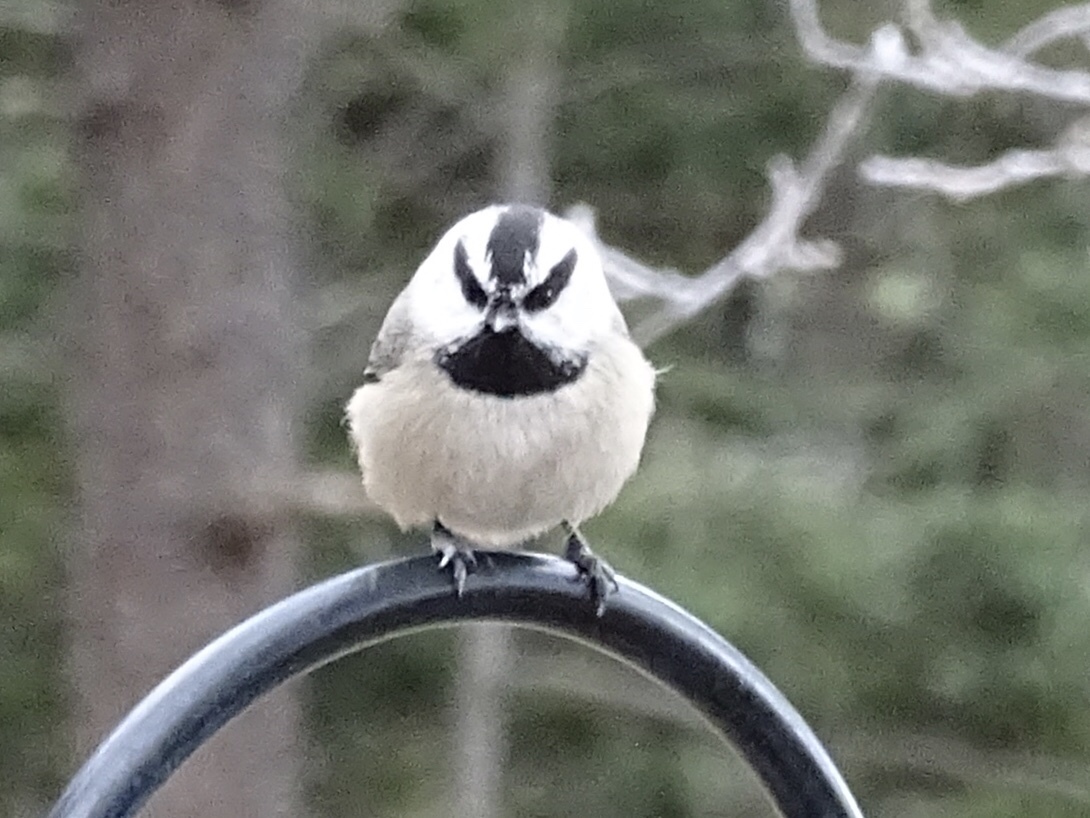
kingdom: Animalia
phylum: Chordata
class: Aves
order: Passeriformes
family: Paridae
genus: Poecile
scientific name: Poecile gambeli
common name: Mountain chickadee
